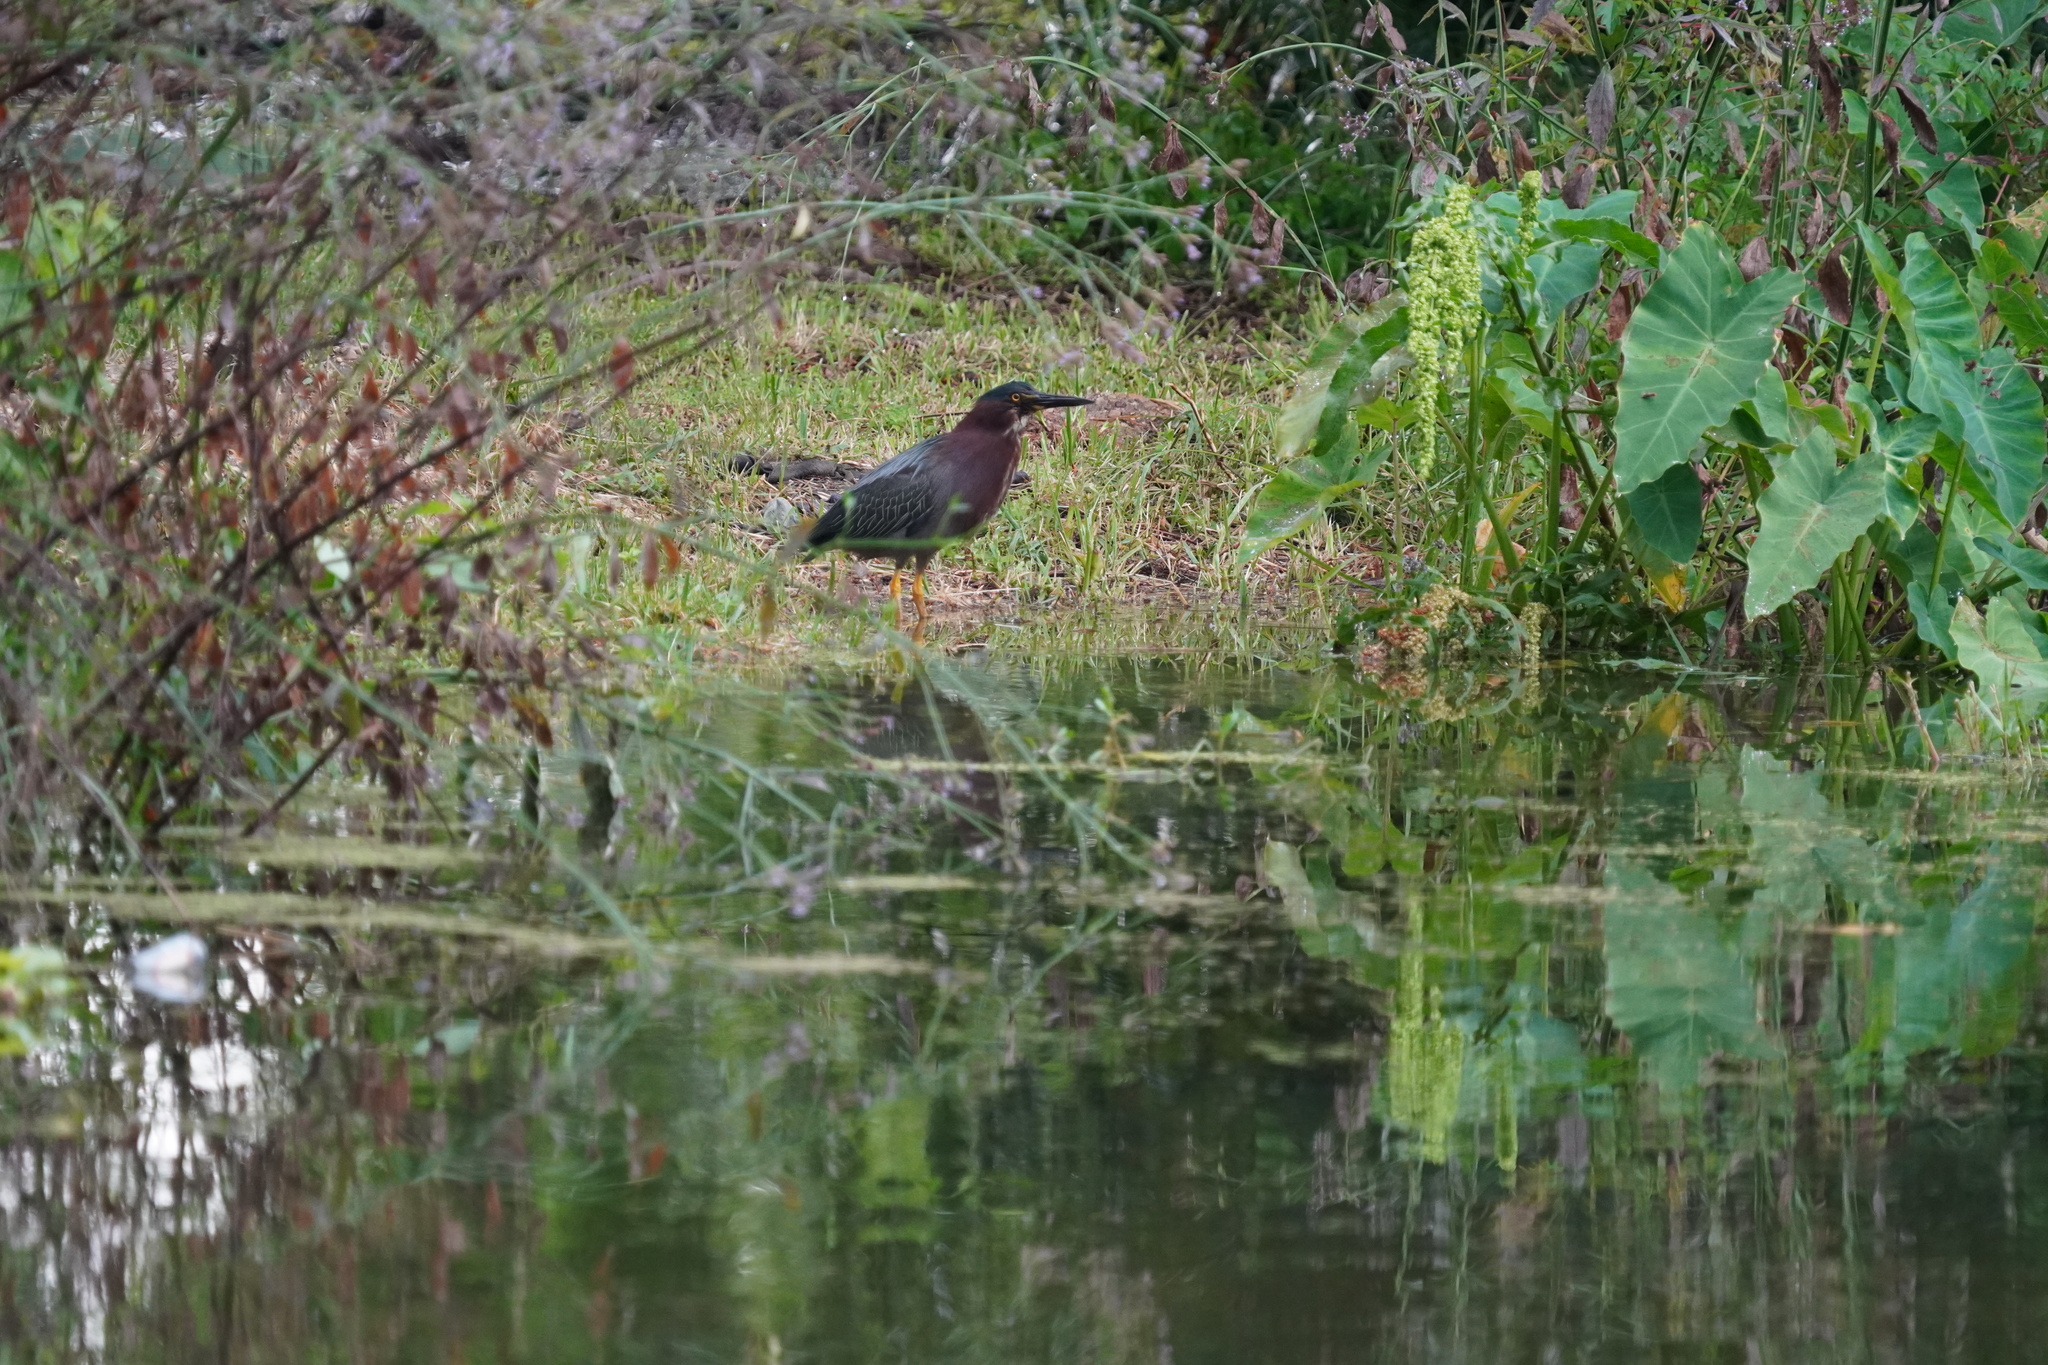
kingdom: Animalia
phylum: Chordata
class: Aves
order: Pelecaniformes
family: Ardeidae
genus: Butorides
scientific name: Butorides virescens
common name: Green heron
